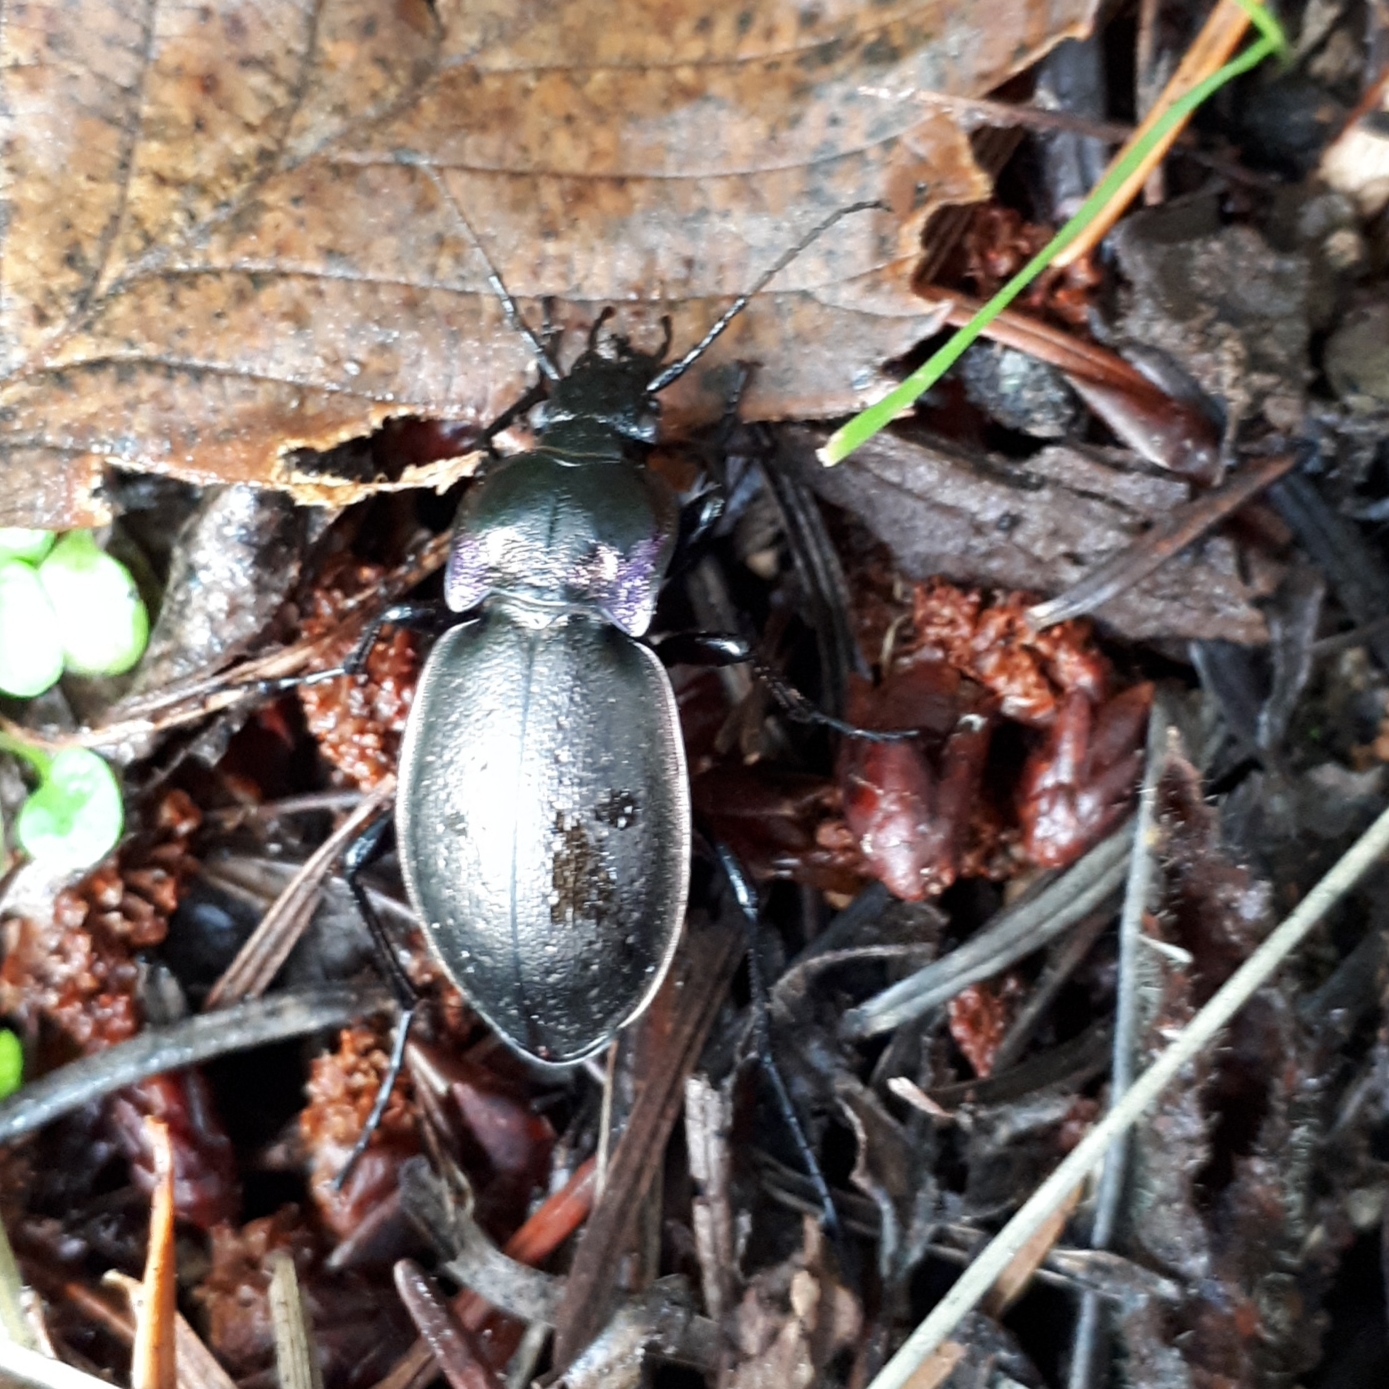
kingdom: Animalia
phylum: Arthropoda
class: Insecta
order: Coleoptera
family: Carabidae
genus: Carabus
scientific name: Carabus nemoralis
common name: European ground beetle
